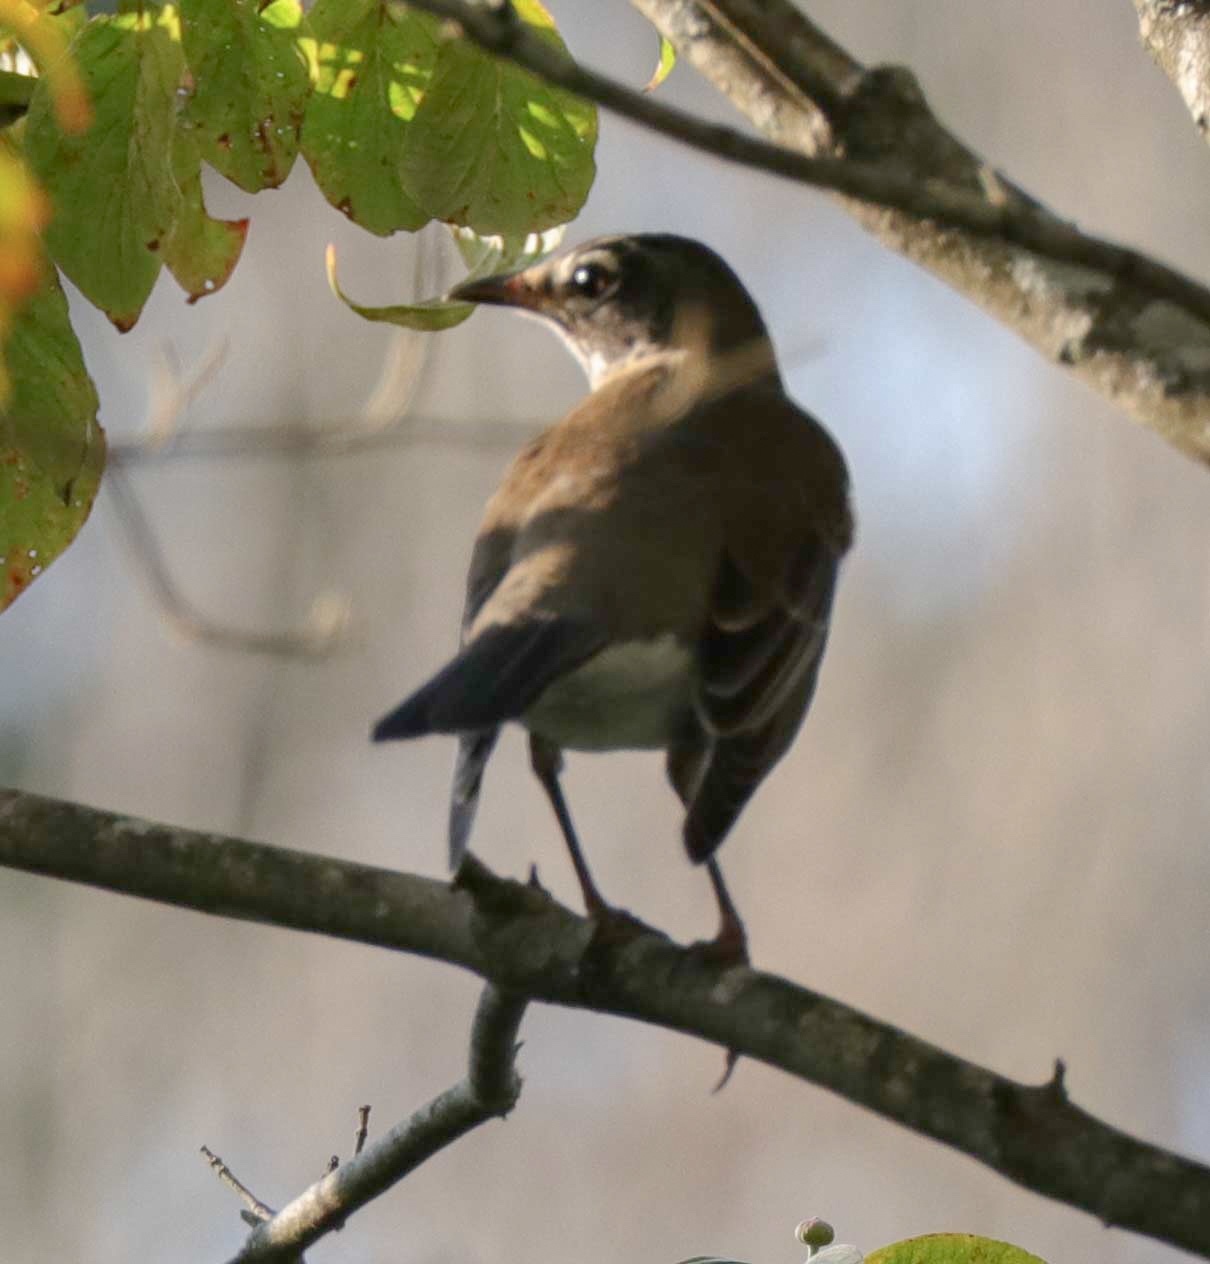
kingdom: Animalia
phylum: Chordata
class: Aves
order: Passeriformes
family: Turdidae
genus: Turdus
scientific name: Turdus migratorius
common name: American robin
